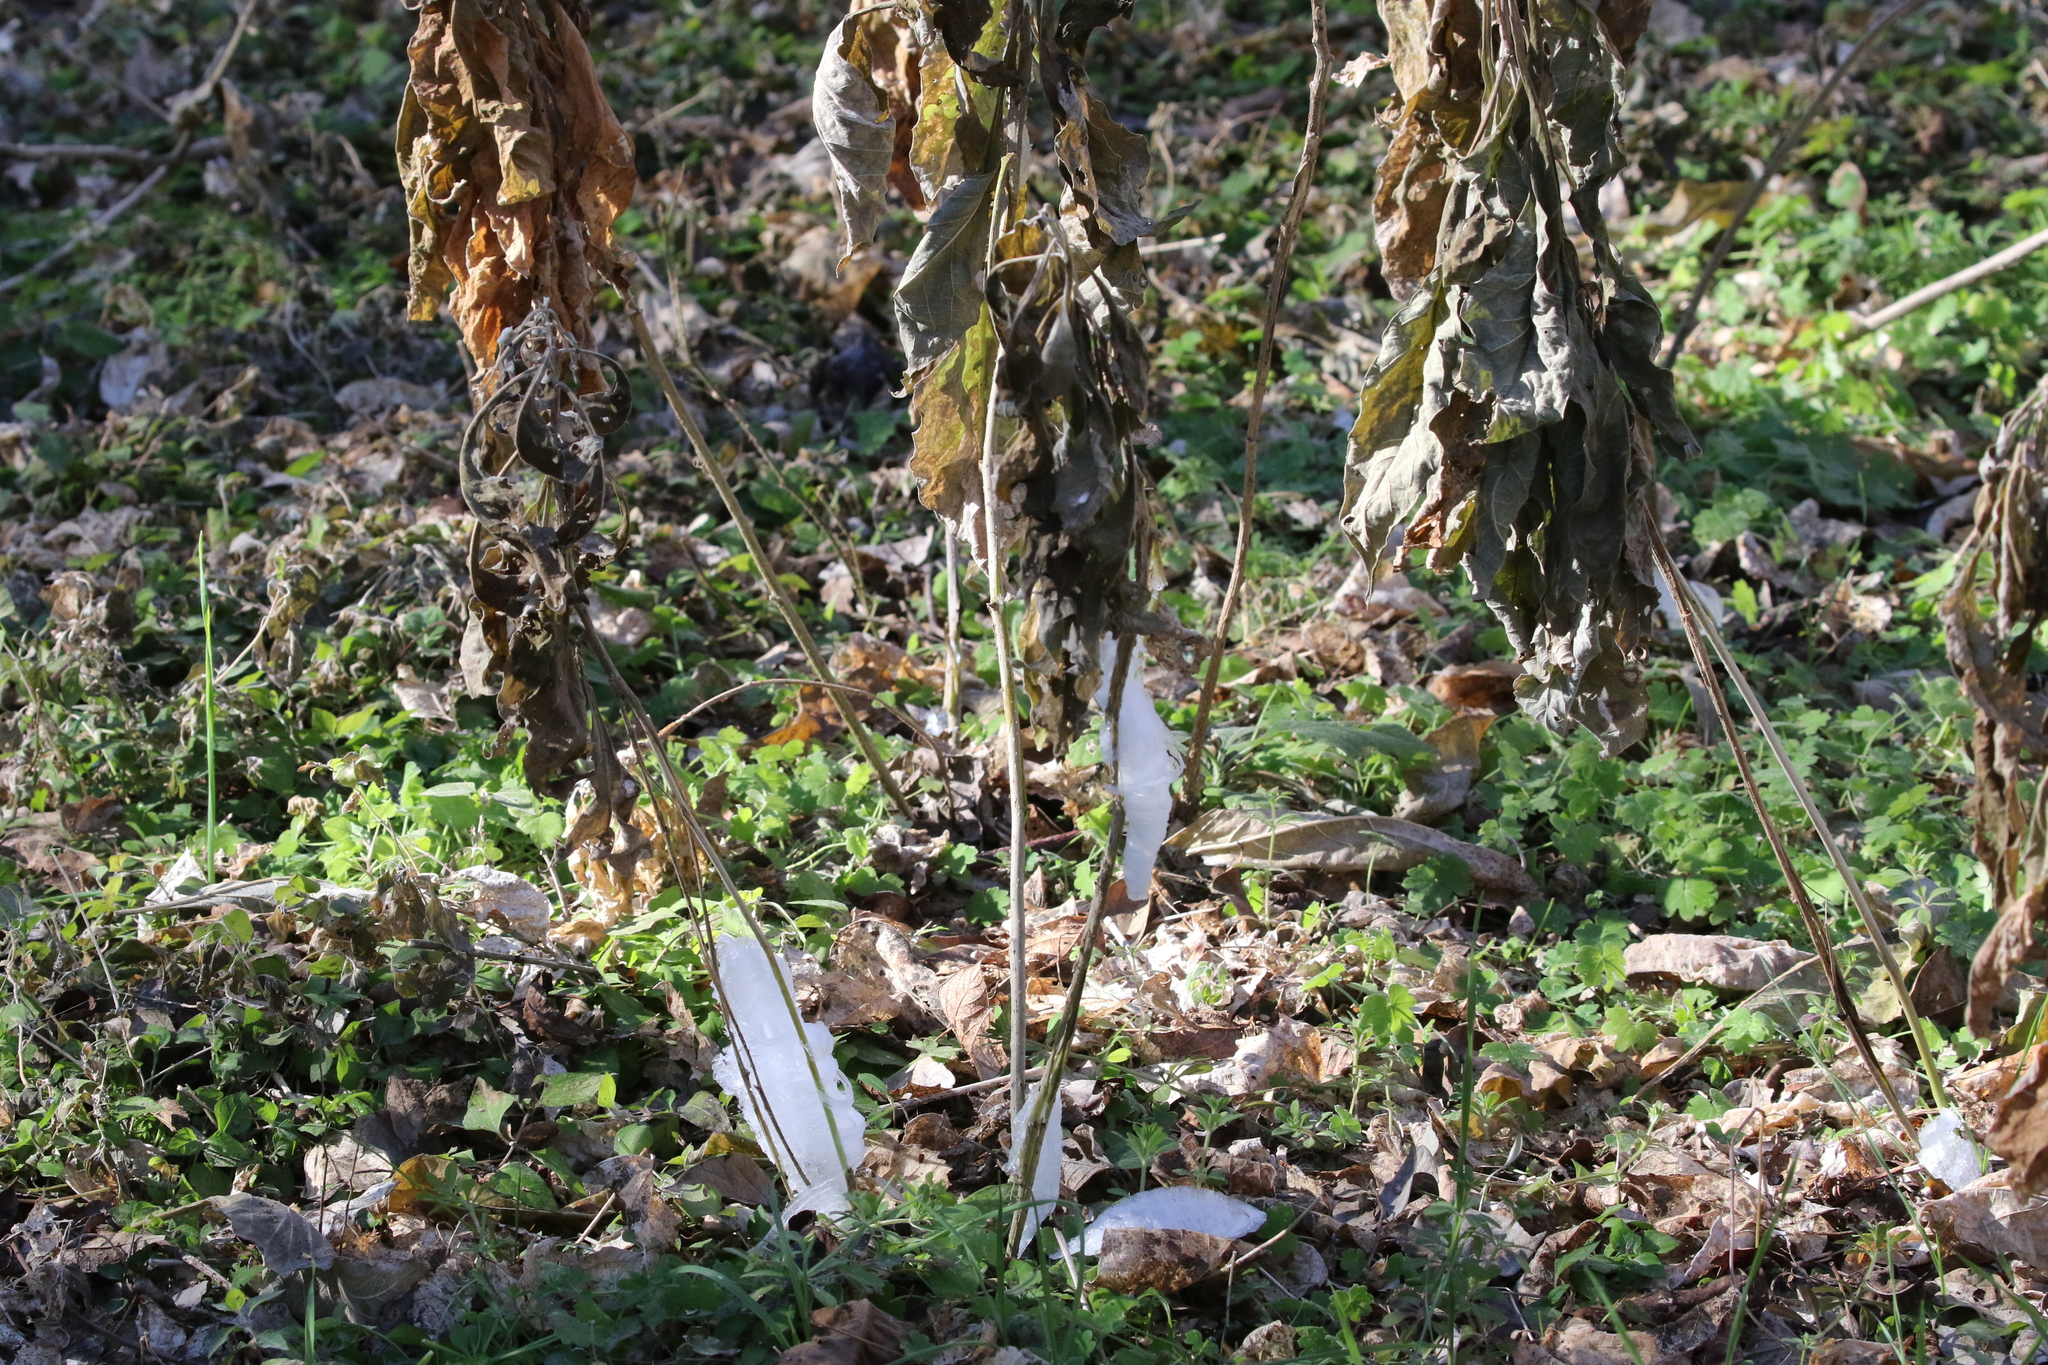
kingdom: Plantae
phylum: Tracheophyta
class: Magnoliopsida
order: Asterales
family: Asteraceae
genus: Verbesina
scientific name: Verbesina virginica
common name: Frostweed
